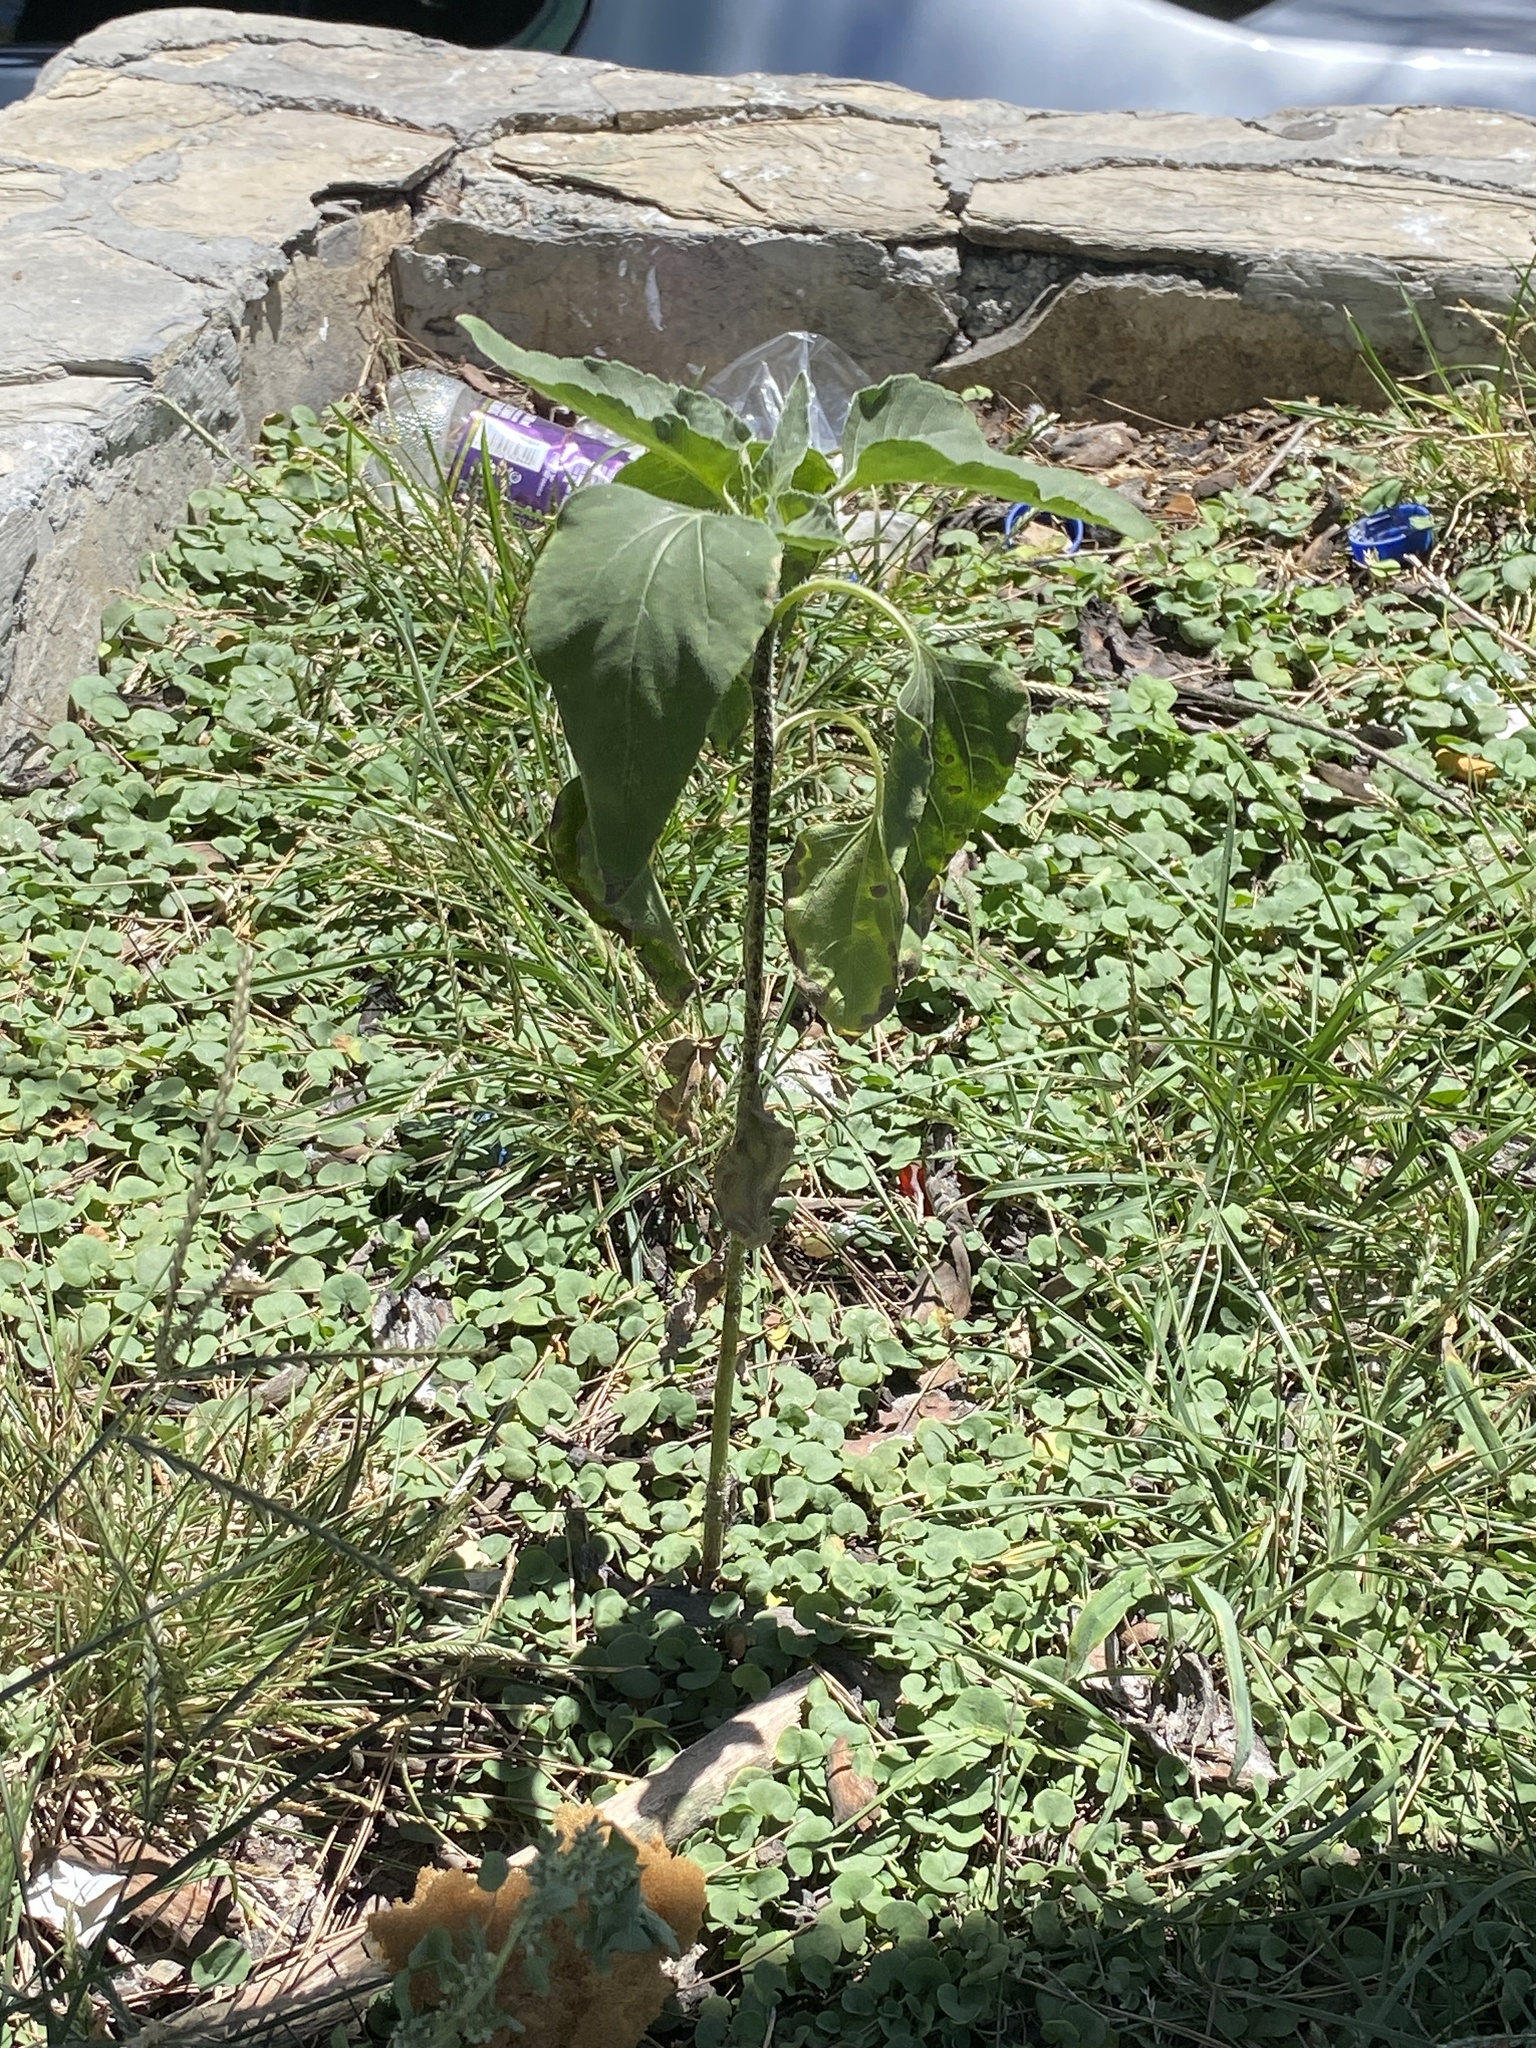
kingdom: Plantae
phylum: Tracheophyta
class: Magnoliopsida
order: Asterales
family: Asteraceae
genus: Helianthus
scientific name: Helianthus annuus
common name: Sunflower
